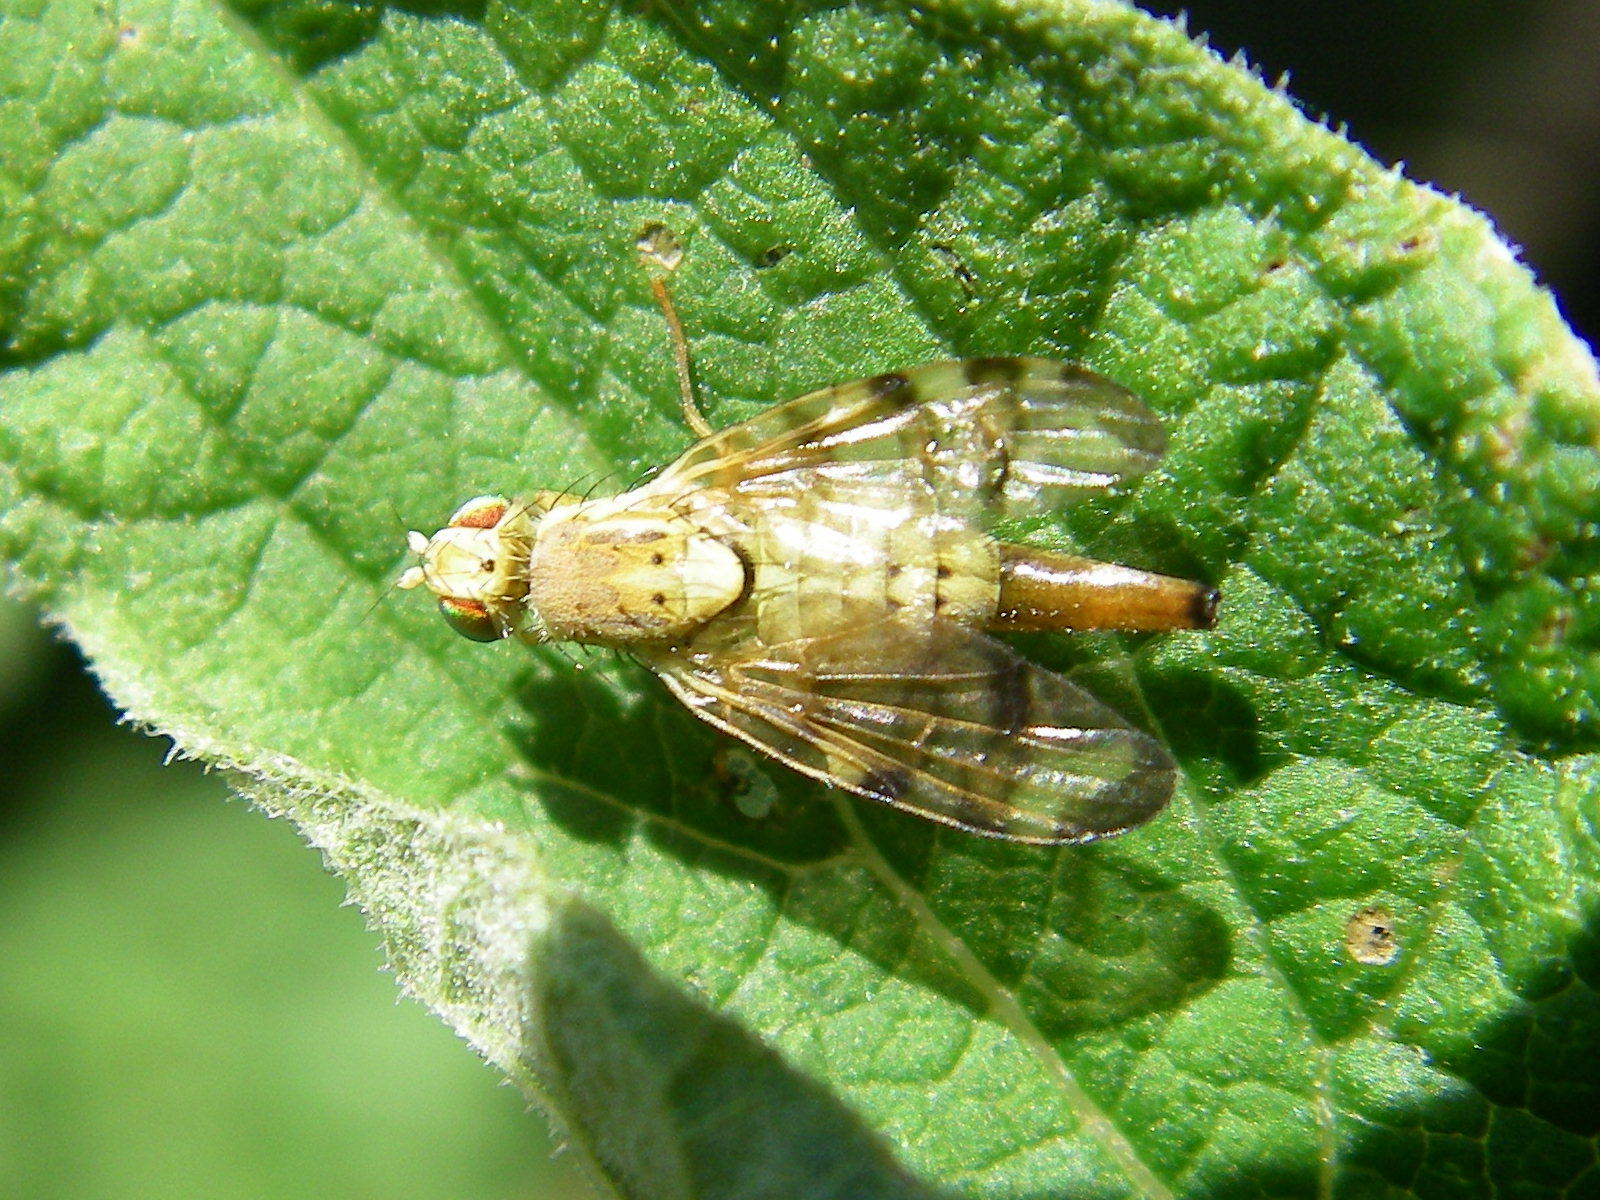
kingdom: Animalia
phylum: Arthropoda
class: Insecta
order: Diptera
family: Tephritidae
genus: Terellia
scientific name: Terellia tussilaginis
